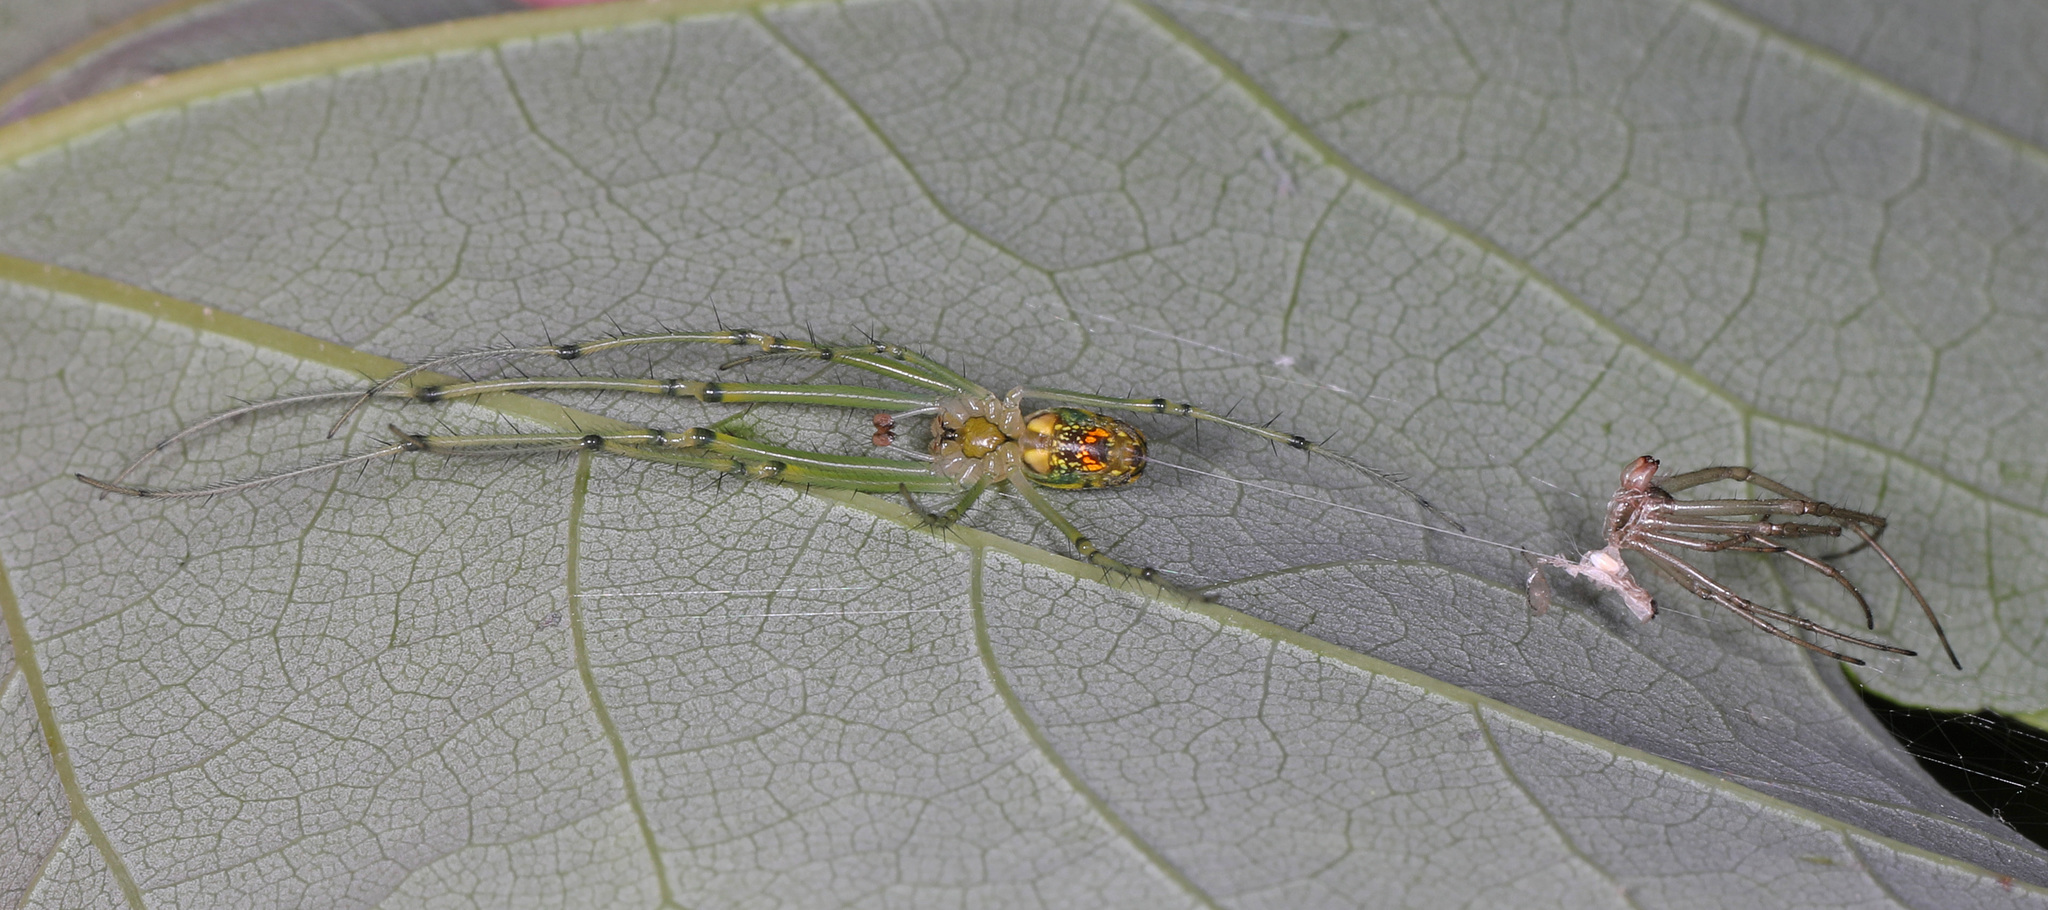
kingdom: Animalia
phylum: Arthropoda
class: Arachnida
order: Araneae
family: Tetragnathidae
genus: Leucauge
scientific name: Leucauge venusta
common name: Longjawed orb weavers
